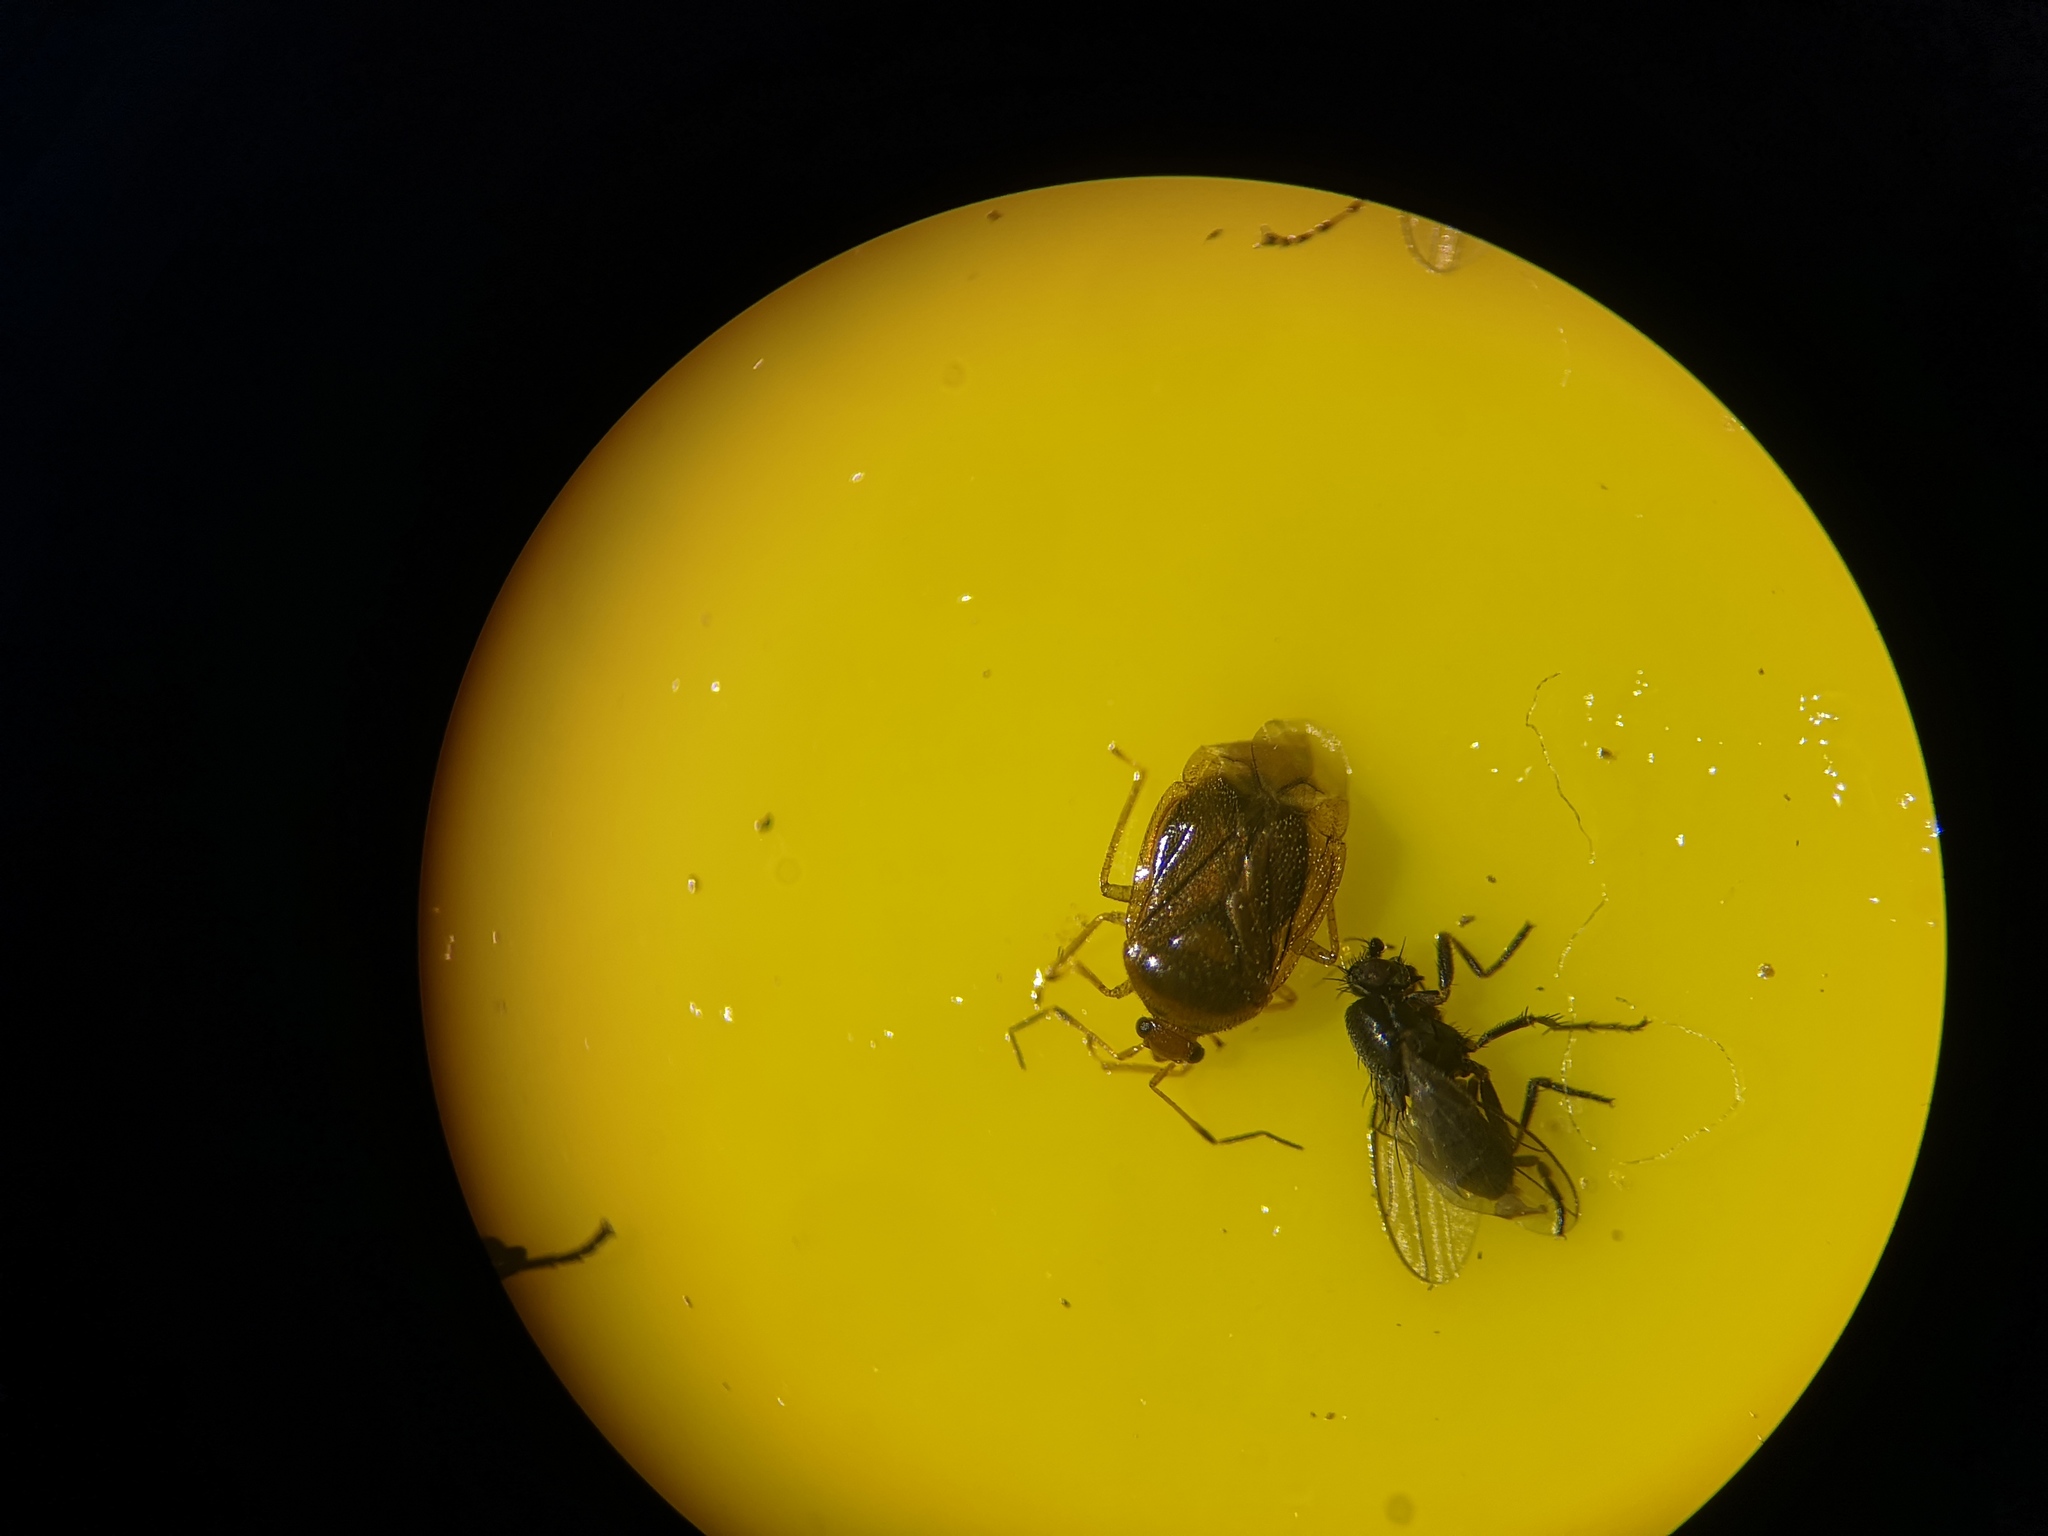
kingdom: Animalia
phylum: Arthropoda
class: Insecta
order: Hemiptera
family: Miridae
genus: Monalocoris
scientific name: Monalocoris filicis
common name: Bracken bug
